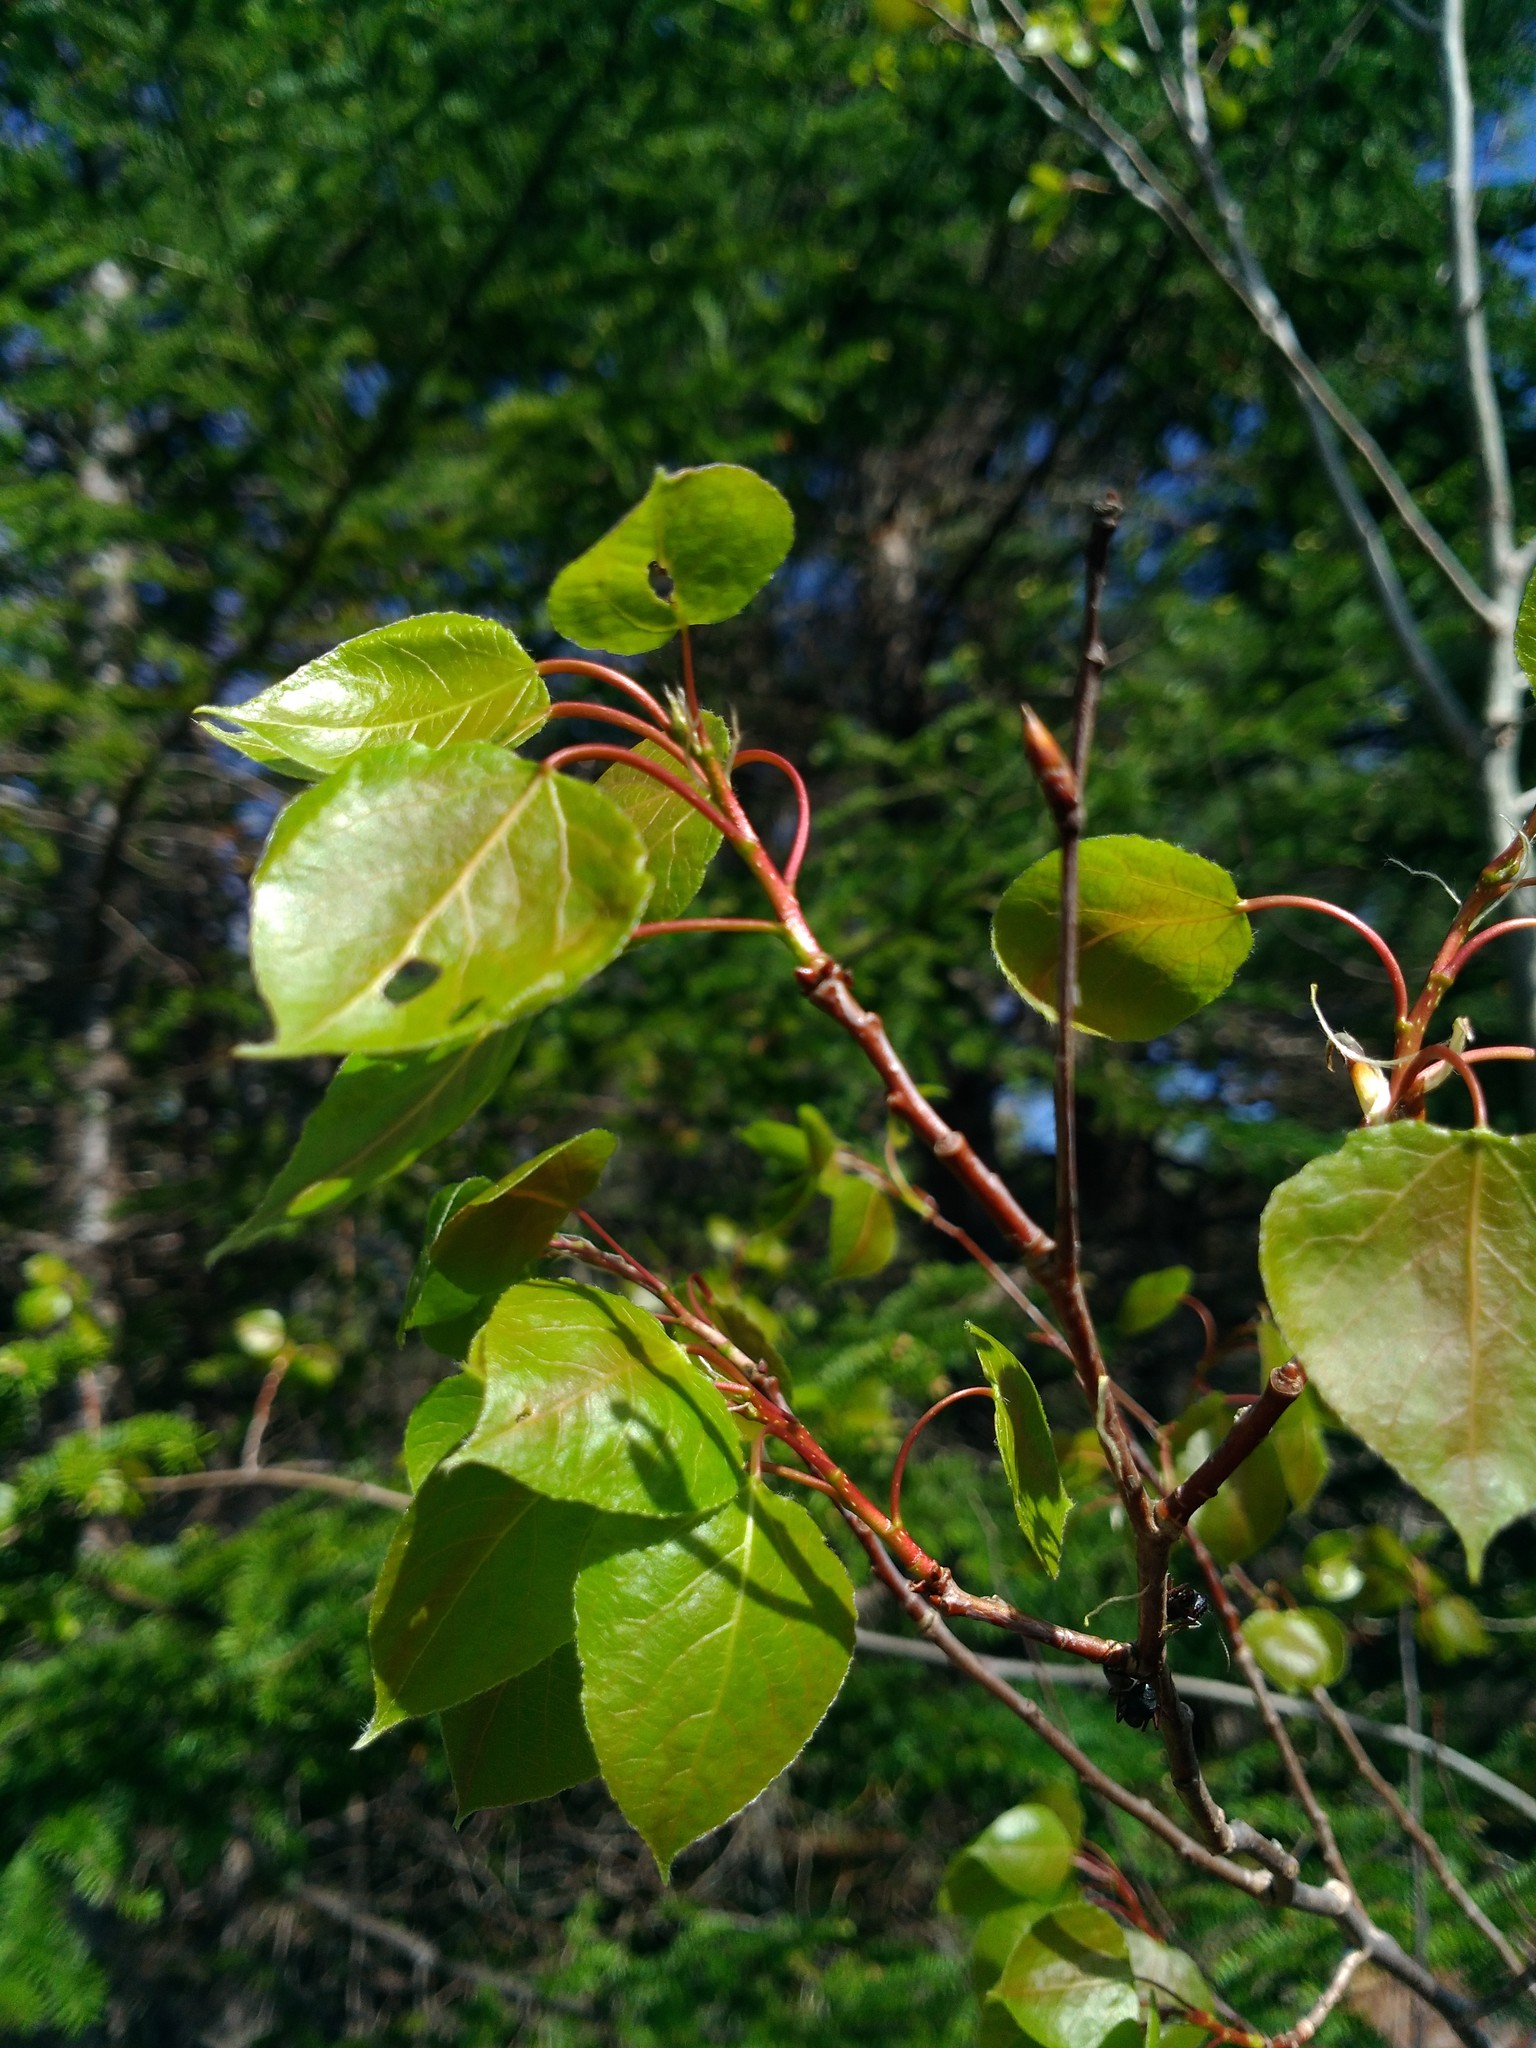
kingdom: Plantae
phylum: Tracheophyta
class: Magnoliopsida
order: Malpighiales
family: Salicaceae
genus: Populus
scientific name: Populus tremuloides
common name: Quaking aspen
